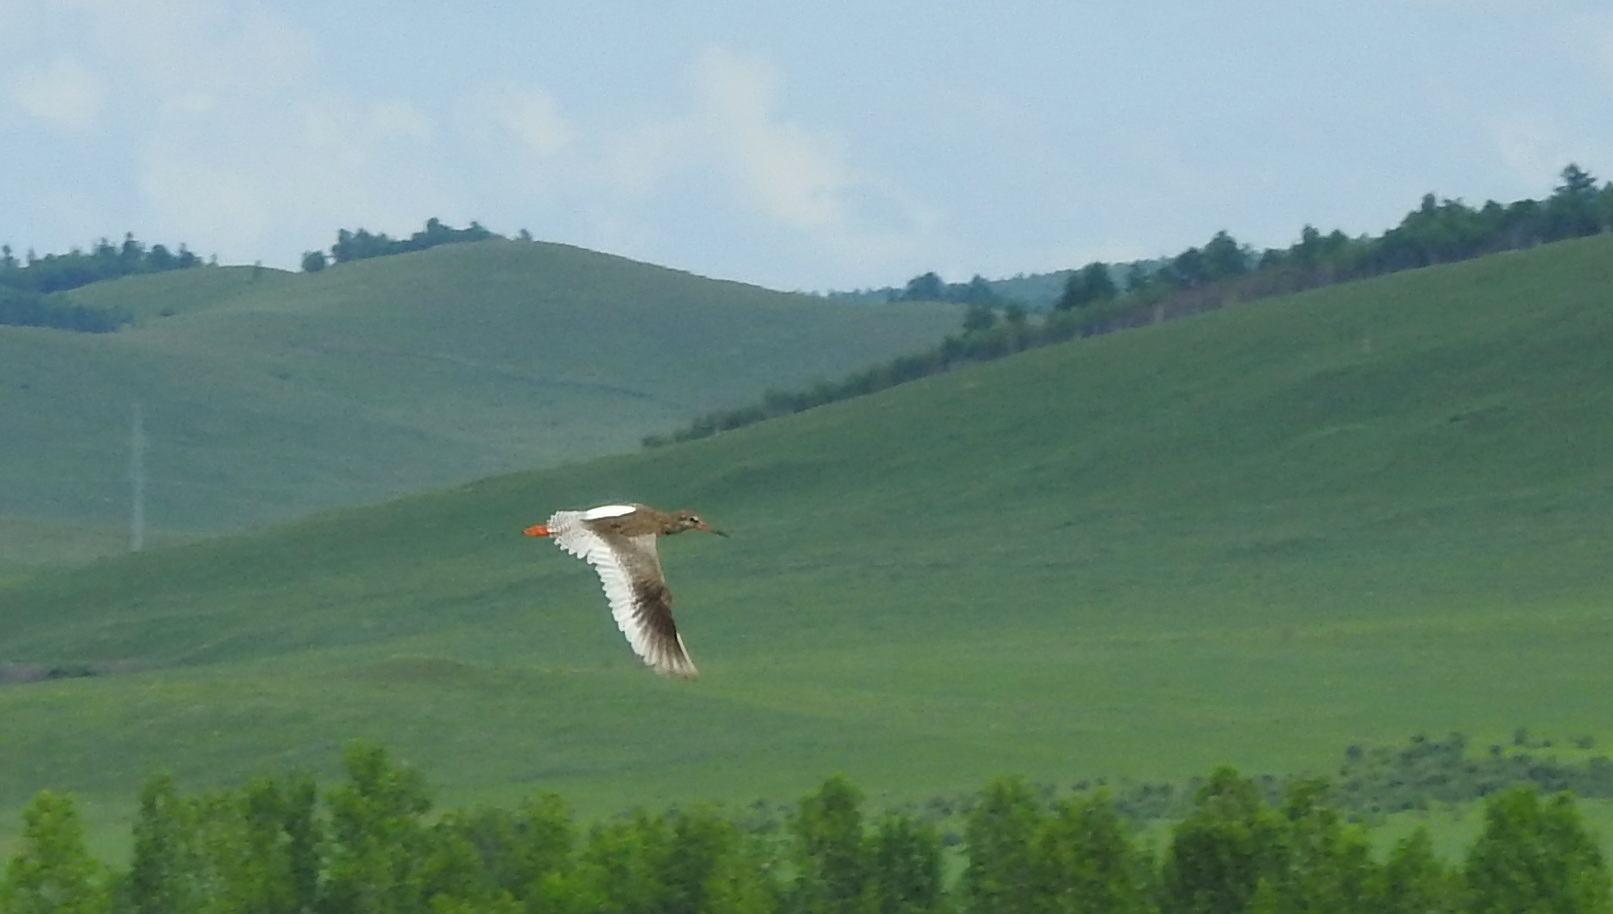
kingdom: Animalia
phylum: Chordata
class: Aves
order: Charadriiformes
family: Scolopacidae
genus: Tringa
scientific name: Tringa totanus
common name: Common redshank
